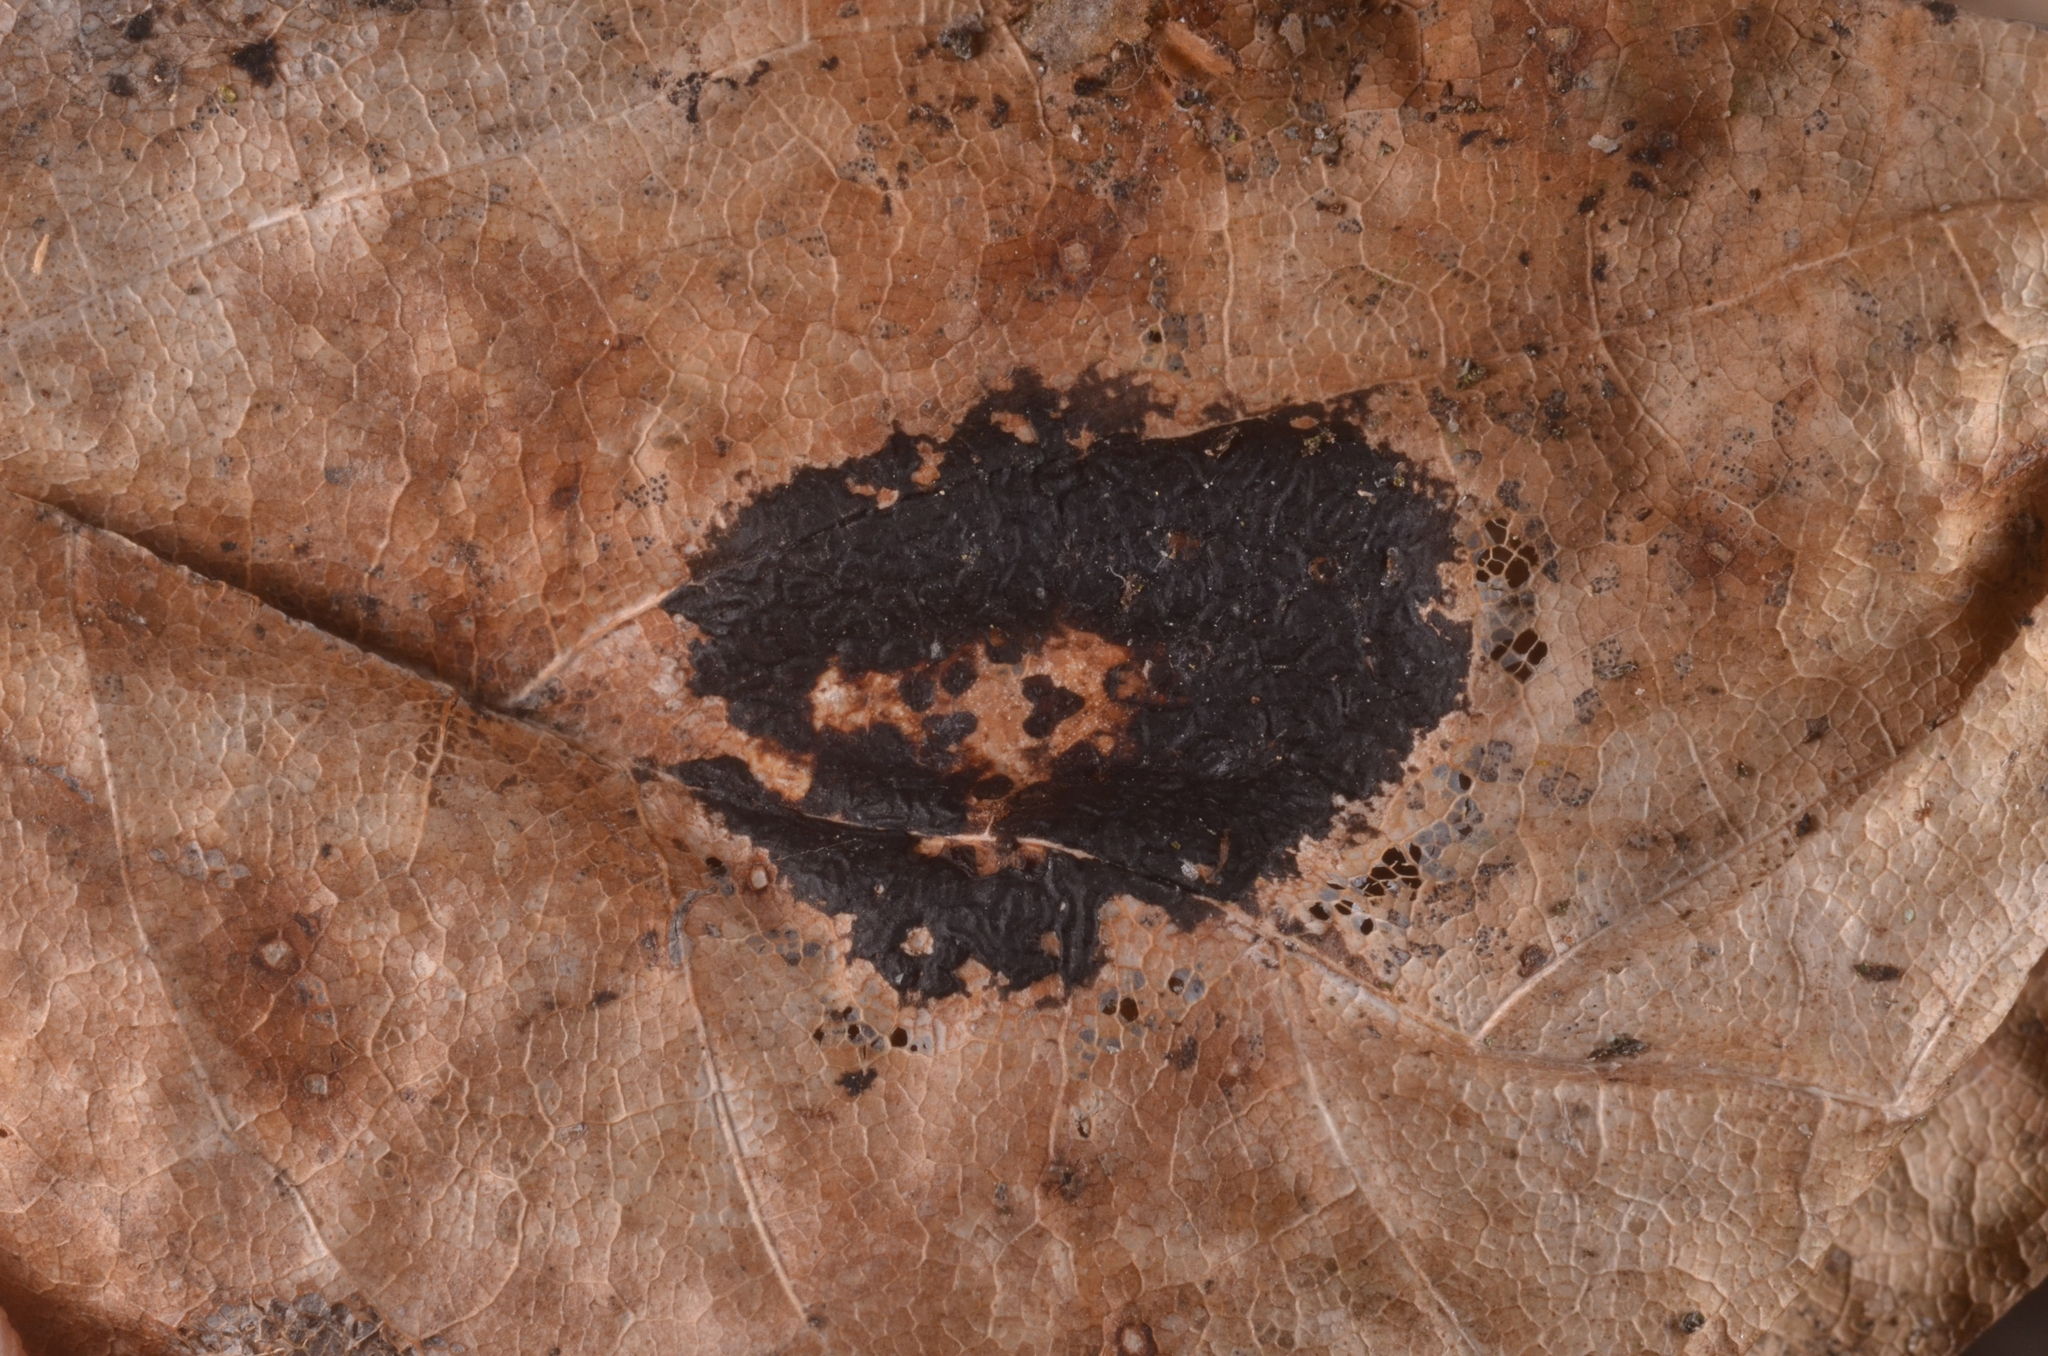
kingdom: Fungi
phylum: Ascomycota
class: Leotiomycetes
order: Rhytismatales
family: Rhytismataceae
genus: Rhytisma
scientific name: Rhytisma acerinum
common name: European tar spot
